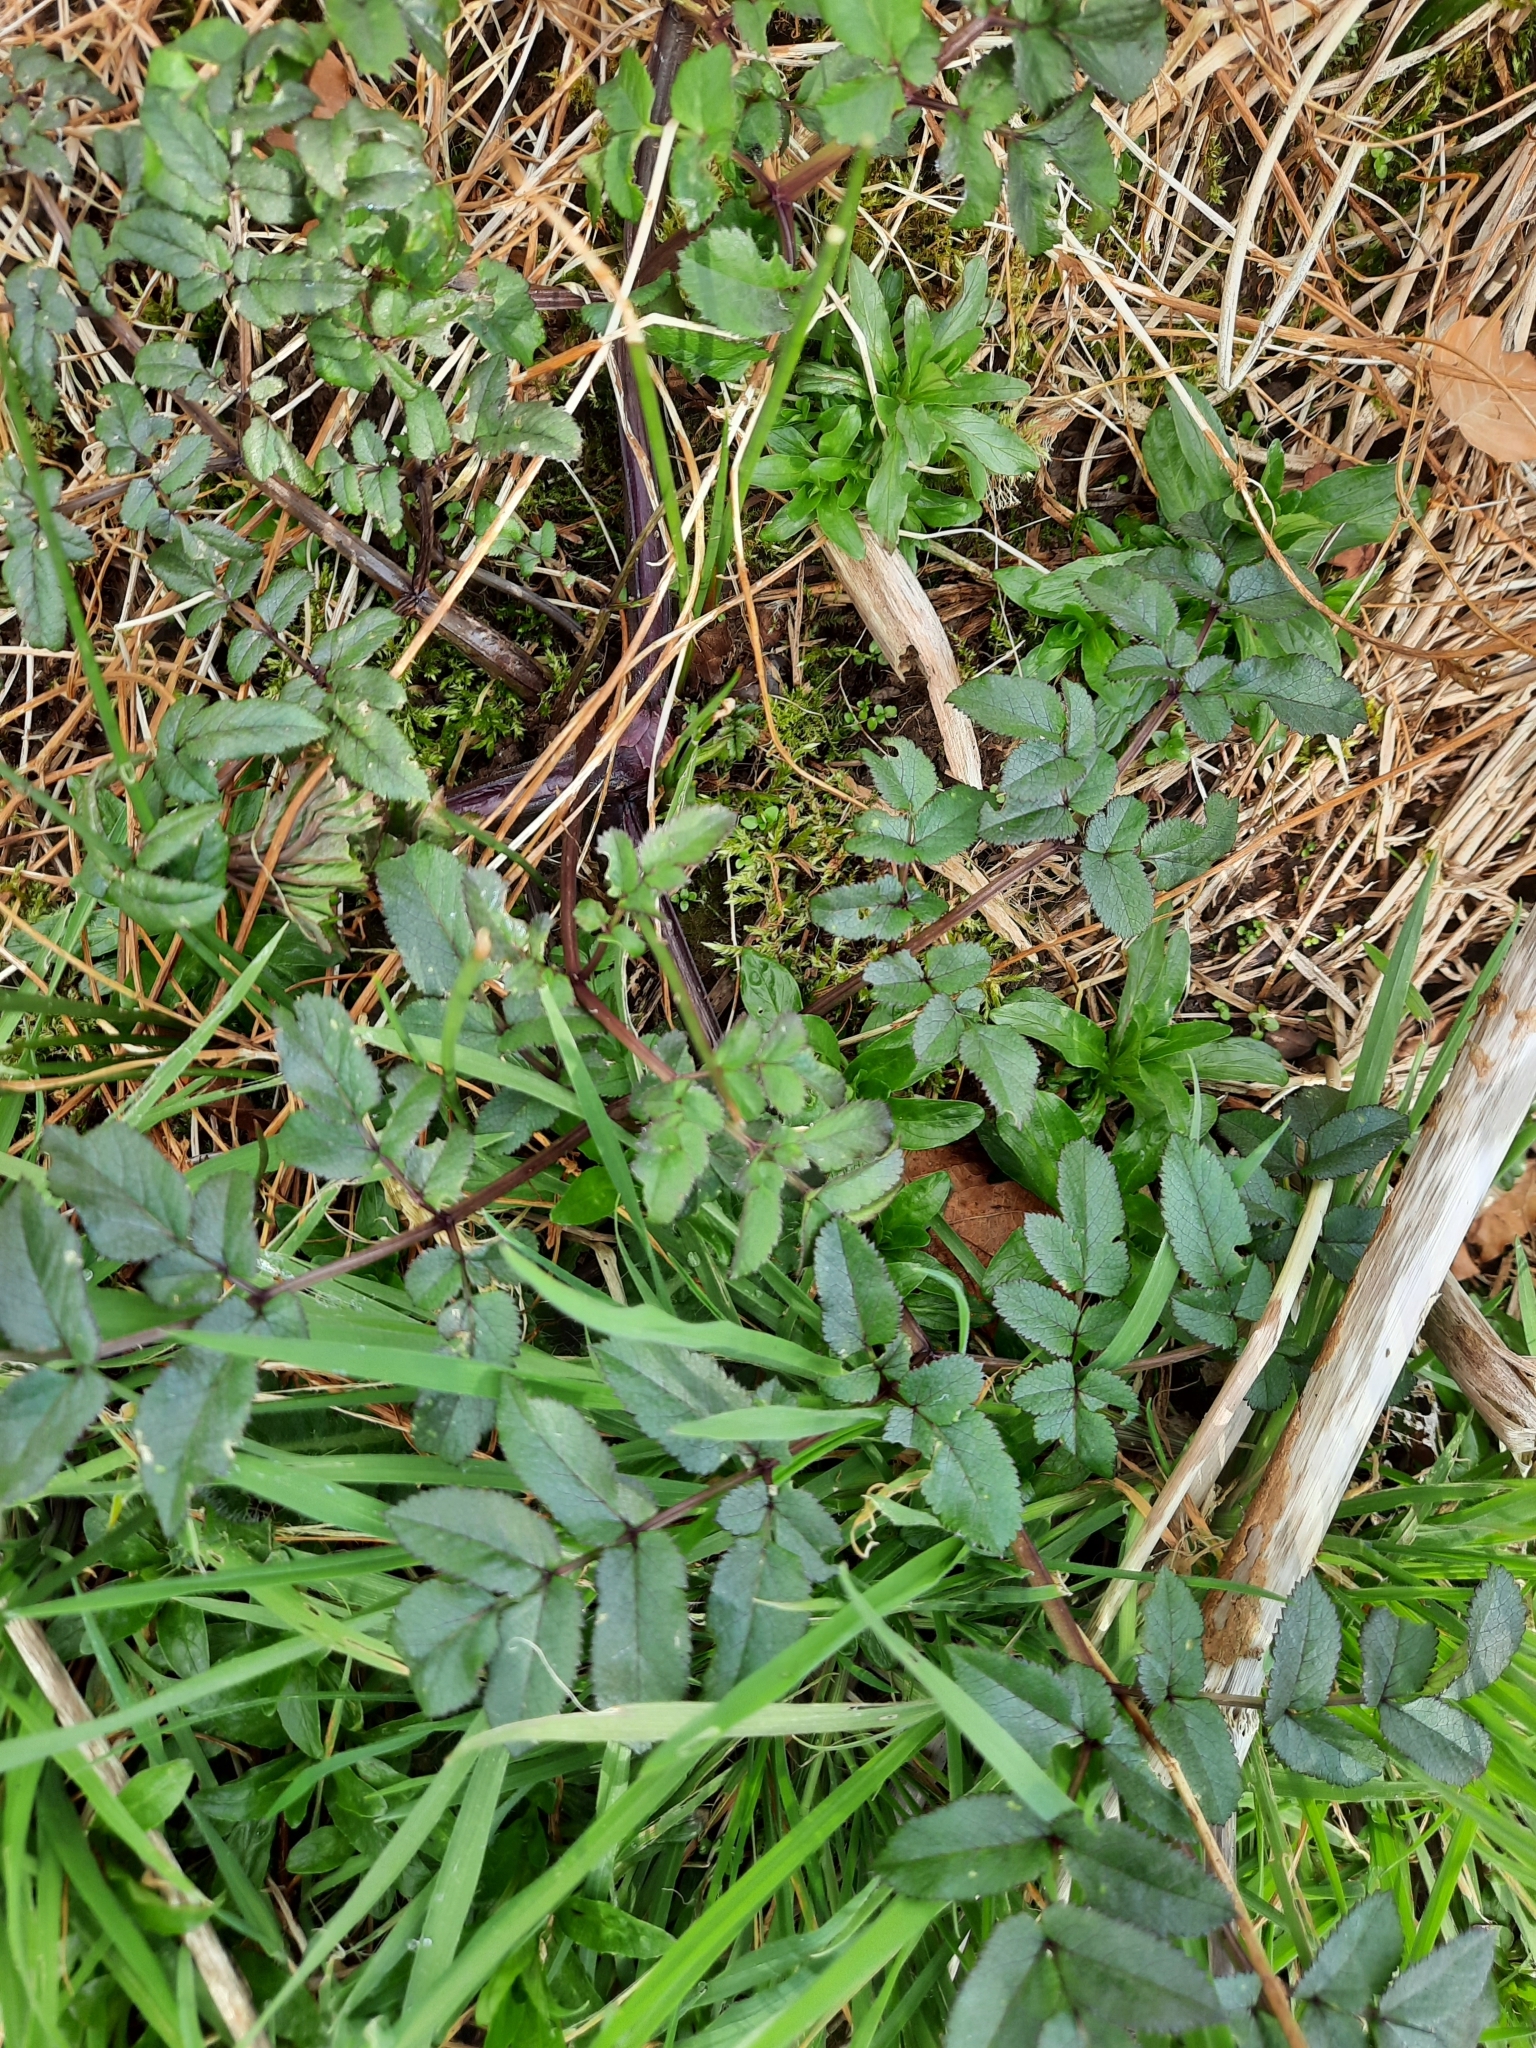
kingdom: Plantae
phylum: Tracheophyta
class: Magnoliopsida
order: Apiales
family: Apiaceae
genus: Angelica
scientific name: Angelica sylvestris
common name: Wild angelica
